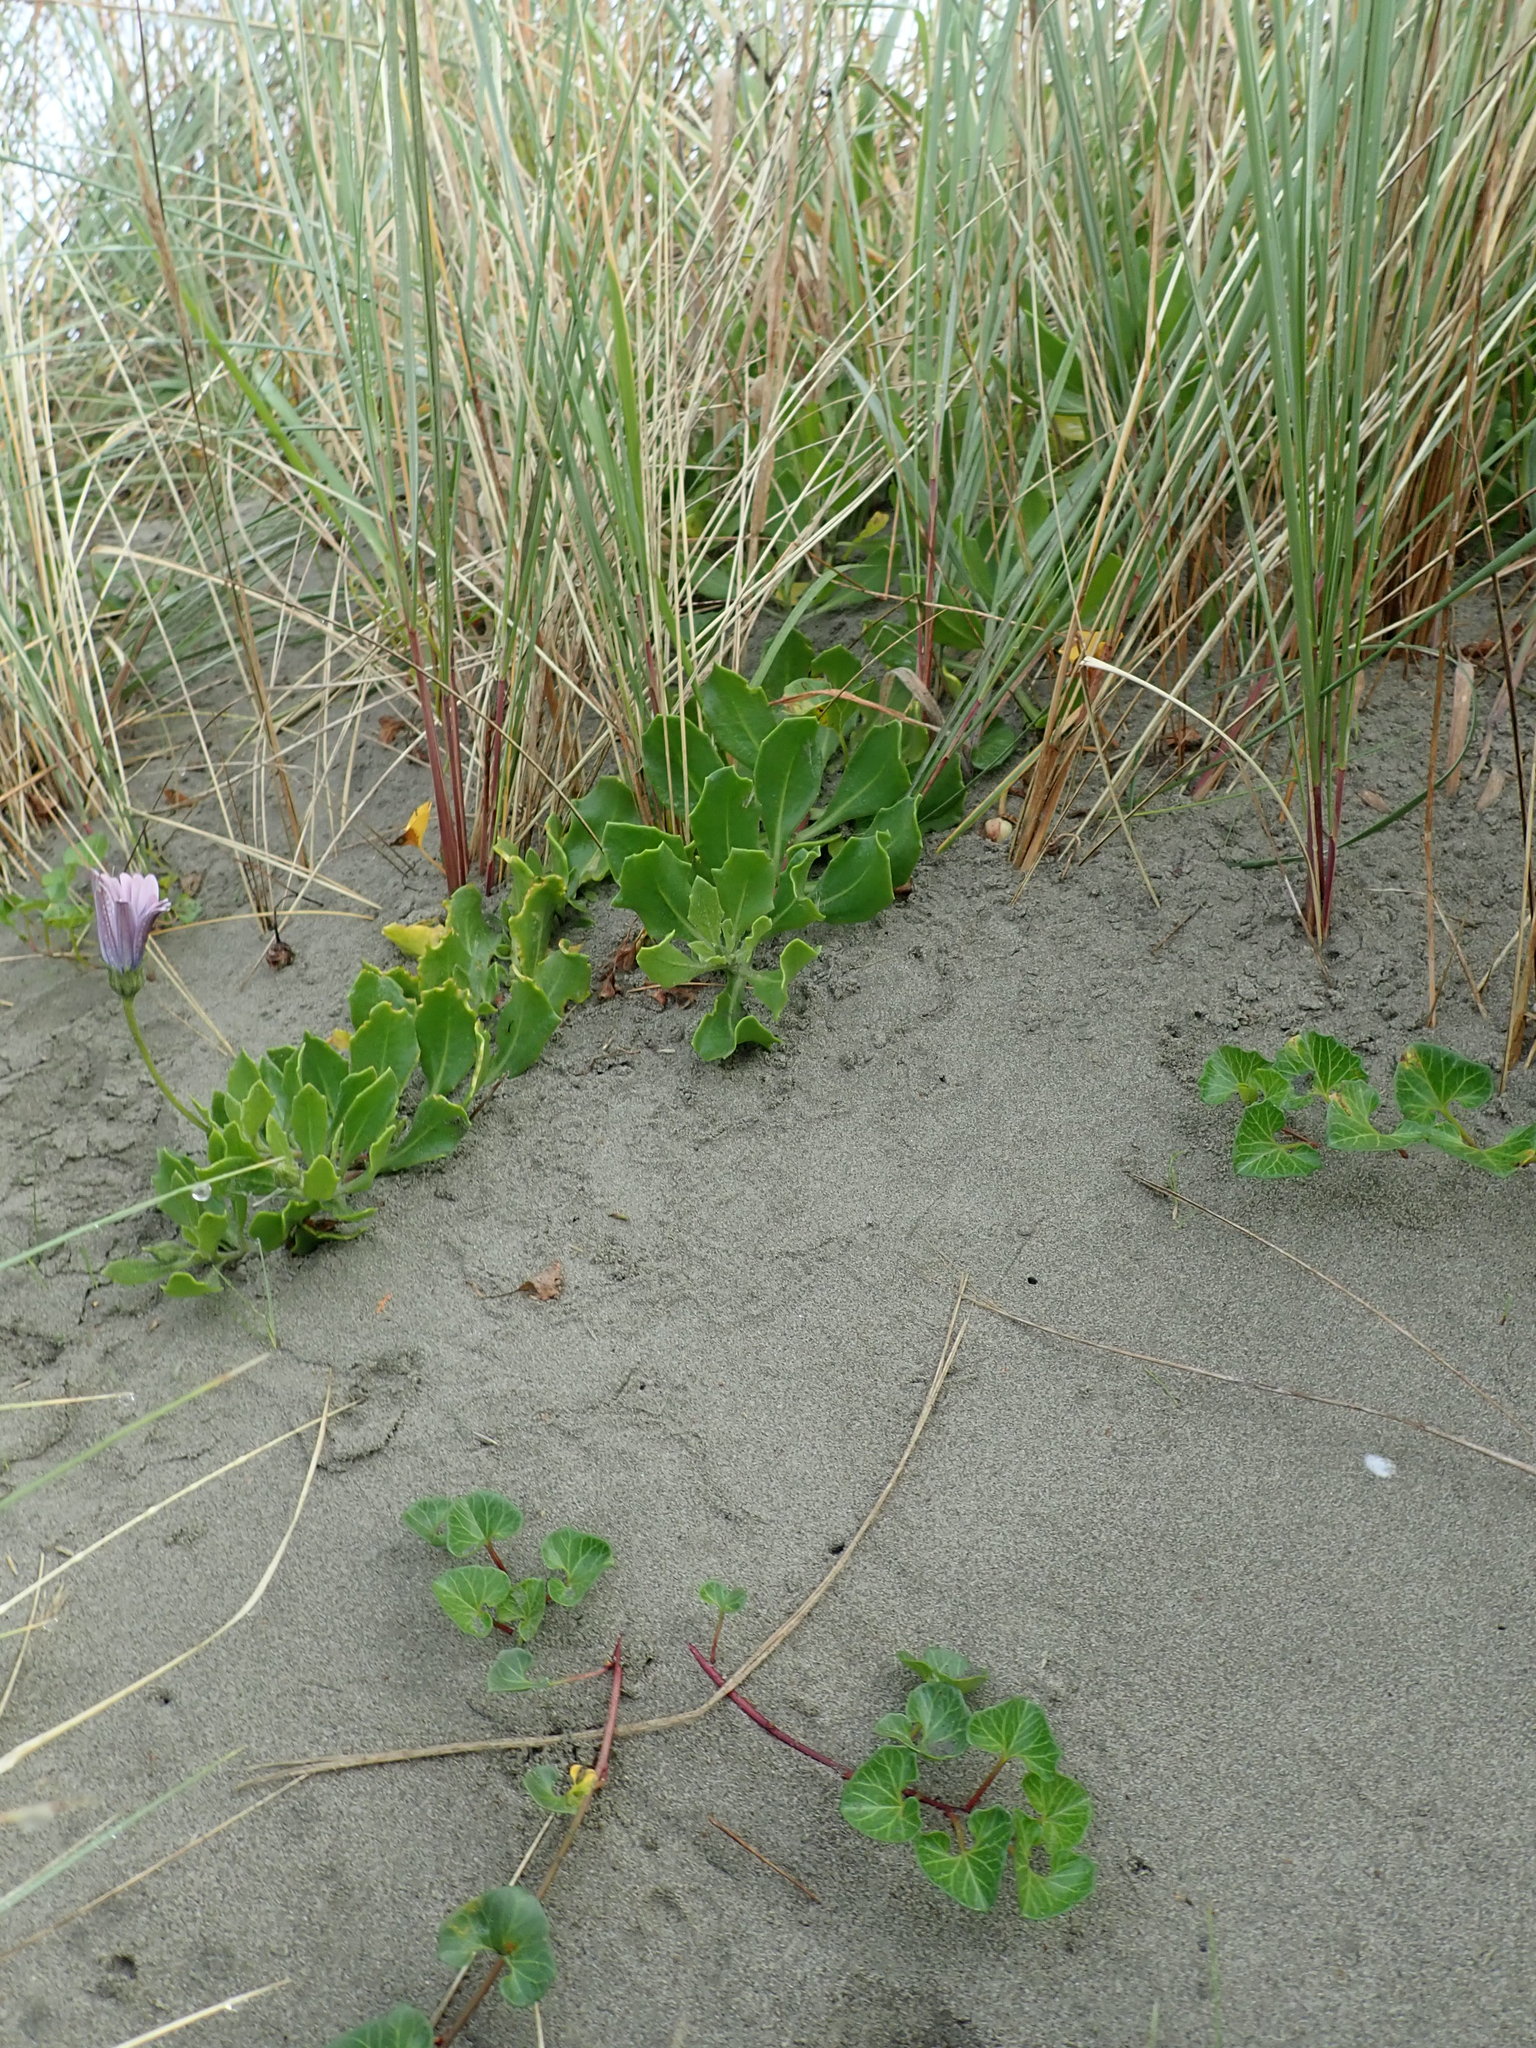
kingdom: Plantae
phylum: Tracheophyta
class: Magnoliopsida
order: Asterales
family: Asteraceae
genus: Dimorphotheca
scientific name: Dimorphotheca fruticosa
